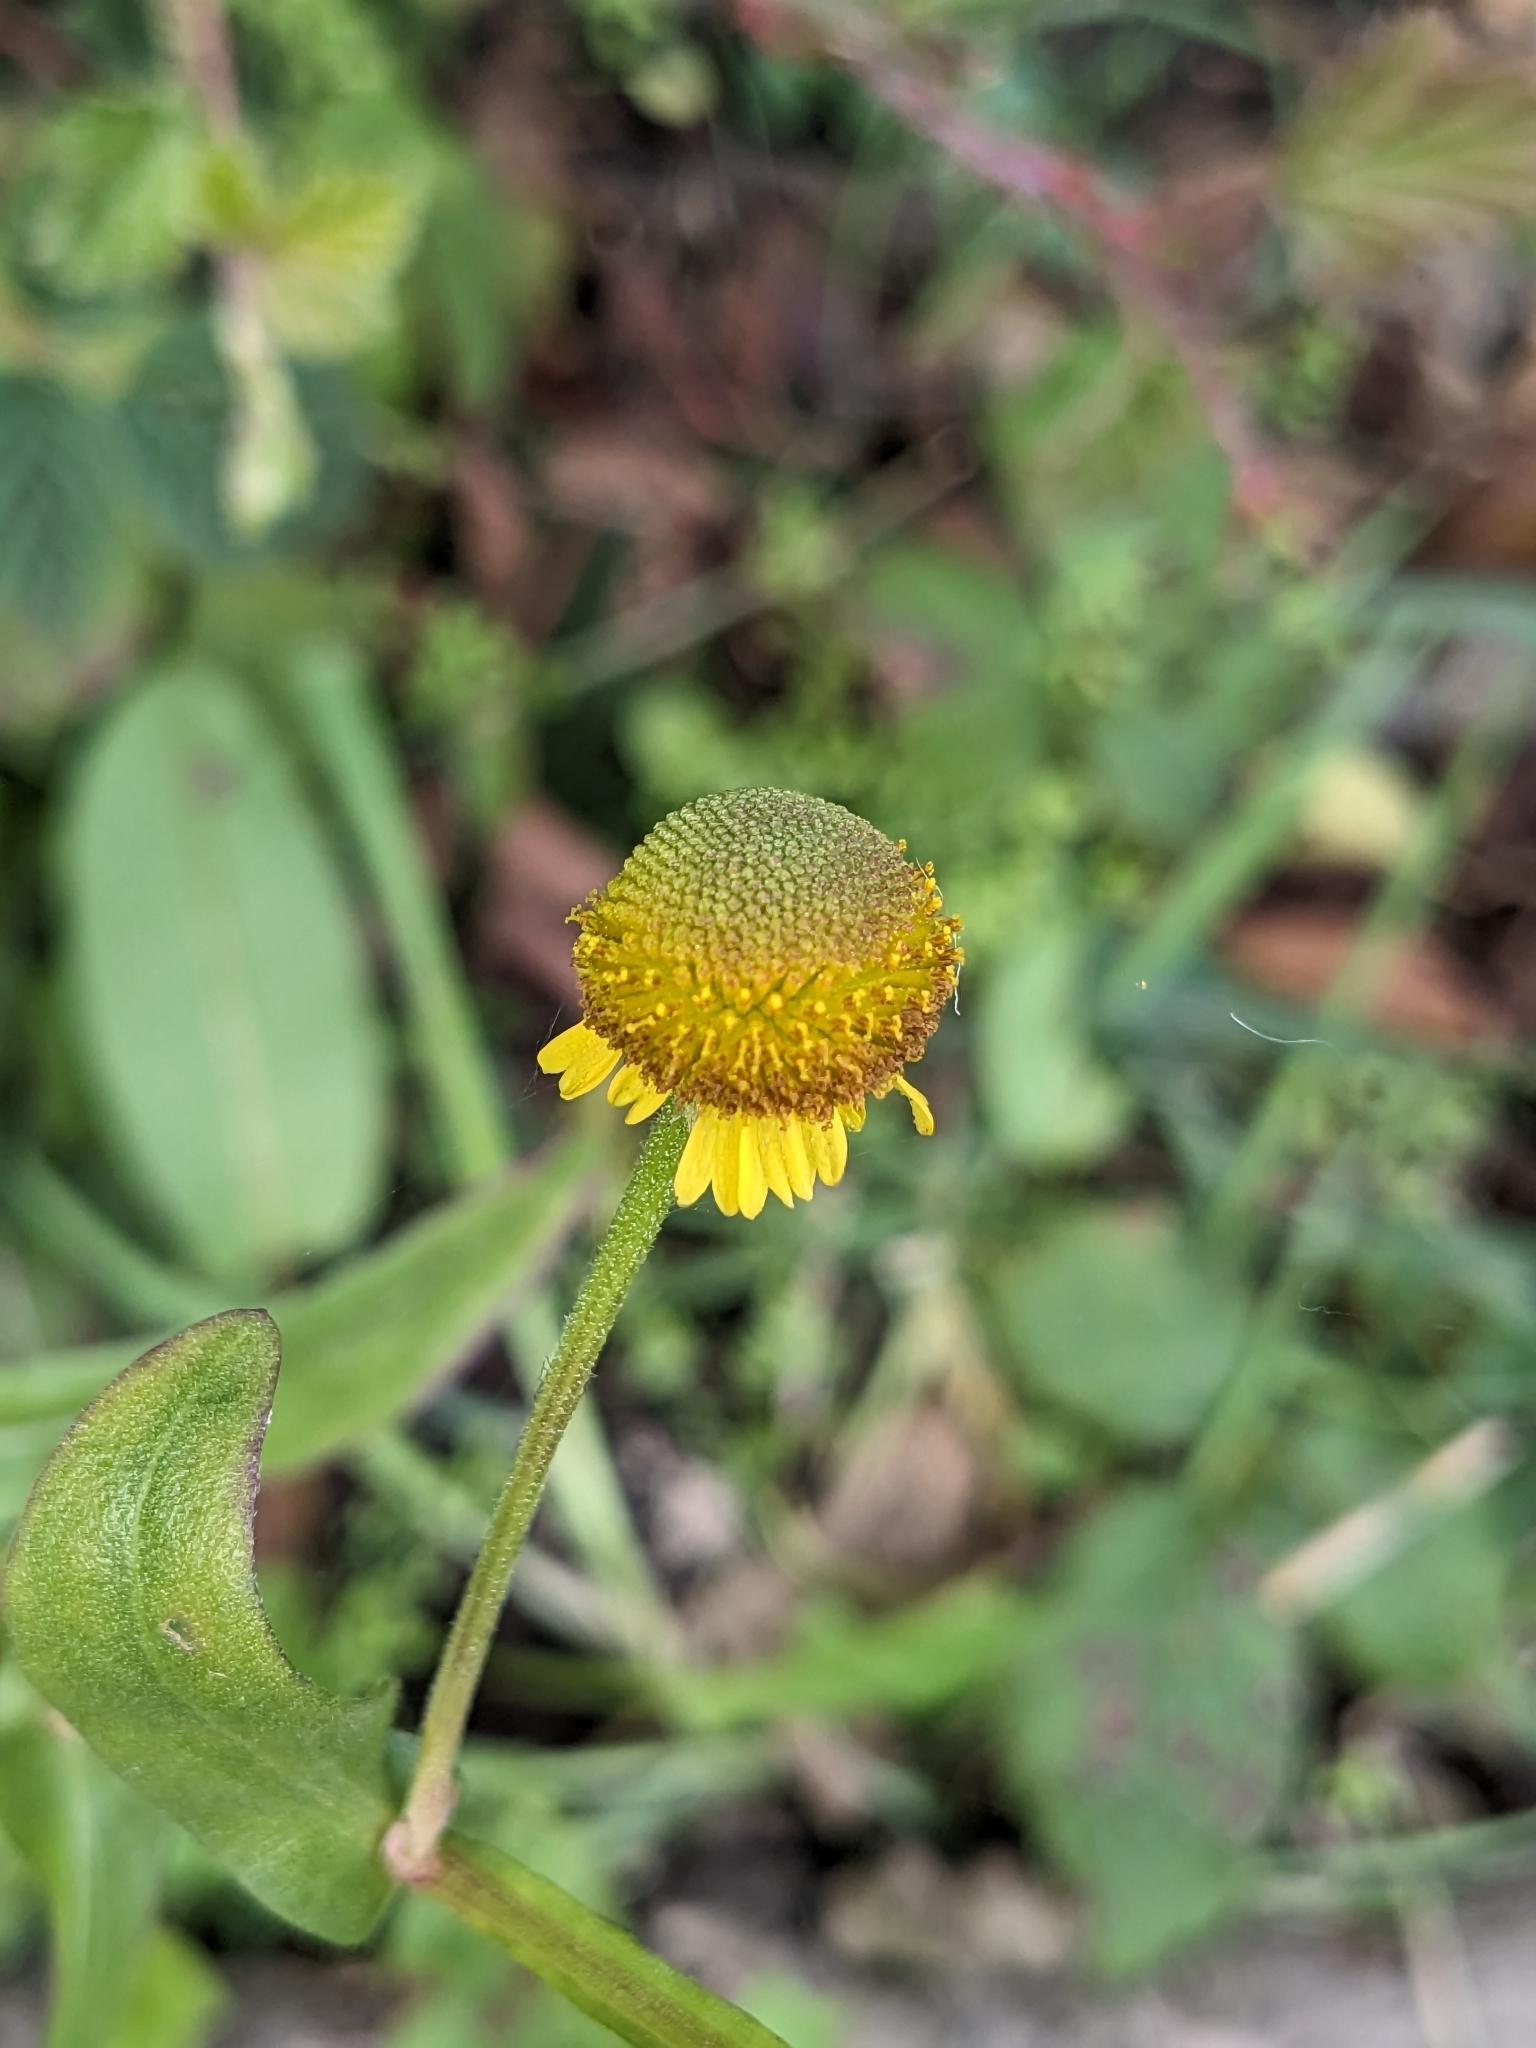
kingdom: Plantae
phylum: Tracheophyta
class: Magnoliopsida
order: Asterales
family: Asteraceae
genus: Helenium
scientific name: Helenium puberulum
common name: Sneezewort
